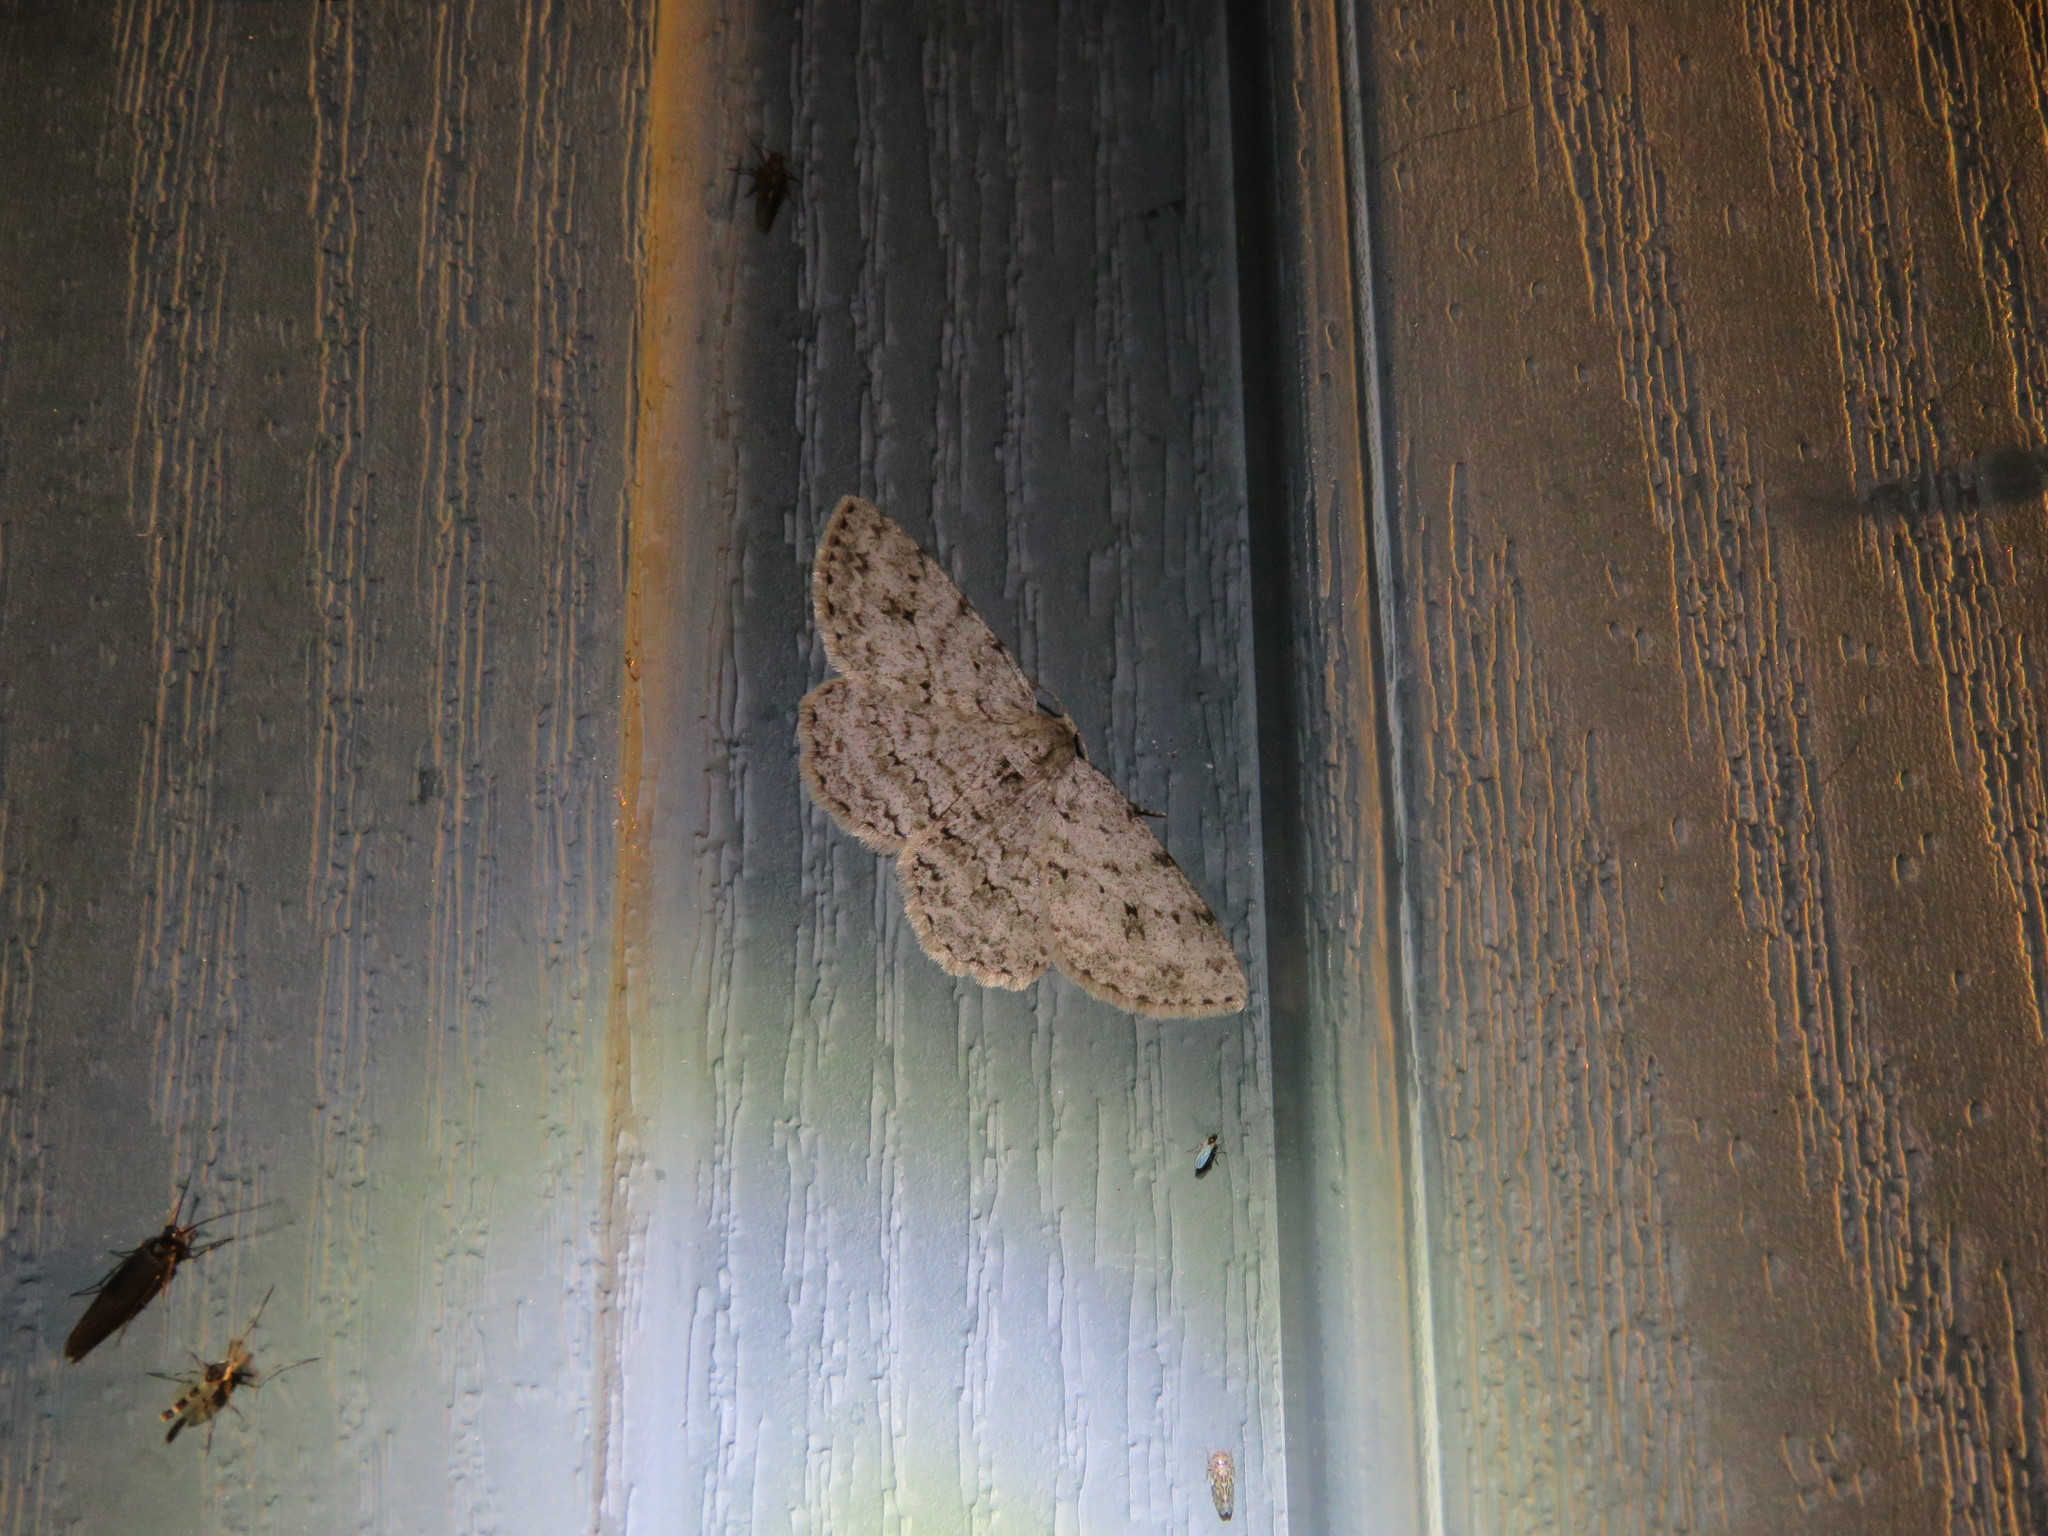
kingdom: Animalia
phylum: Arthropoda
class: Insecta
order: Lepidoptera
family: Geometridae
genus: Ectropis
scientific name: Ectropis crepuscularia
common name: Engrailed
